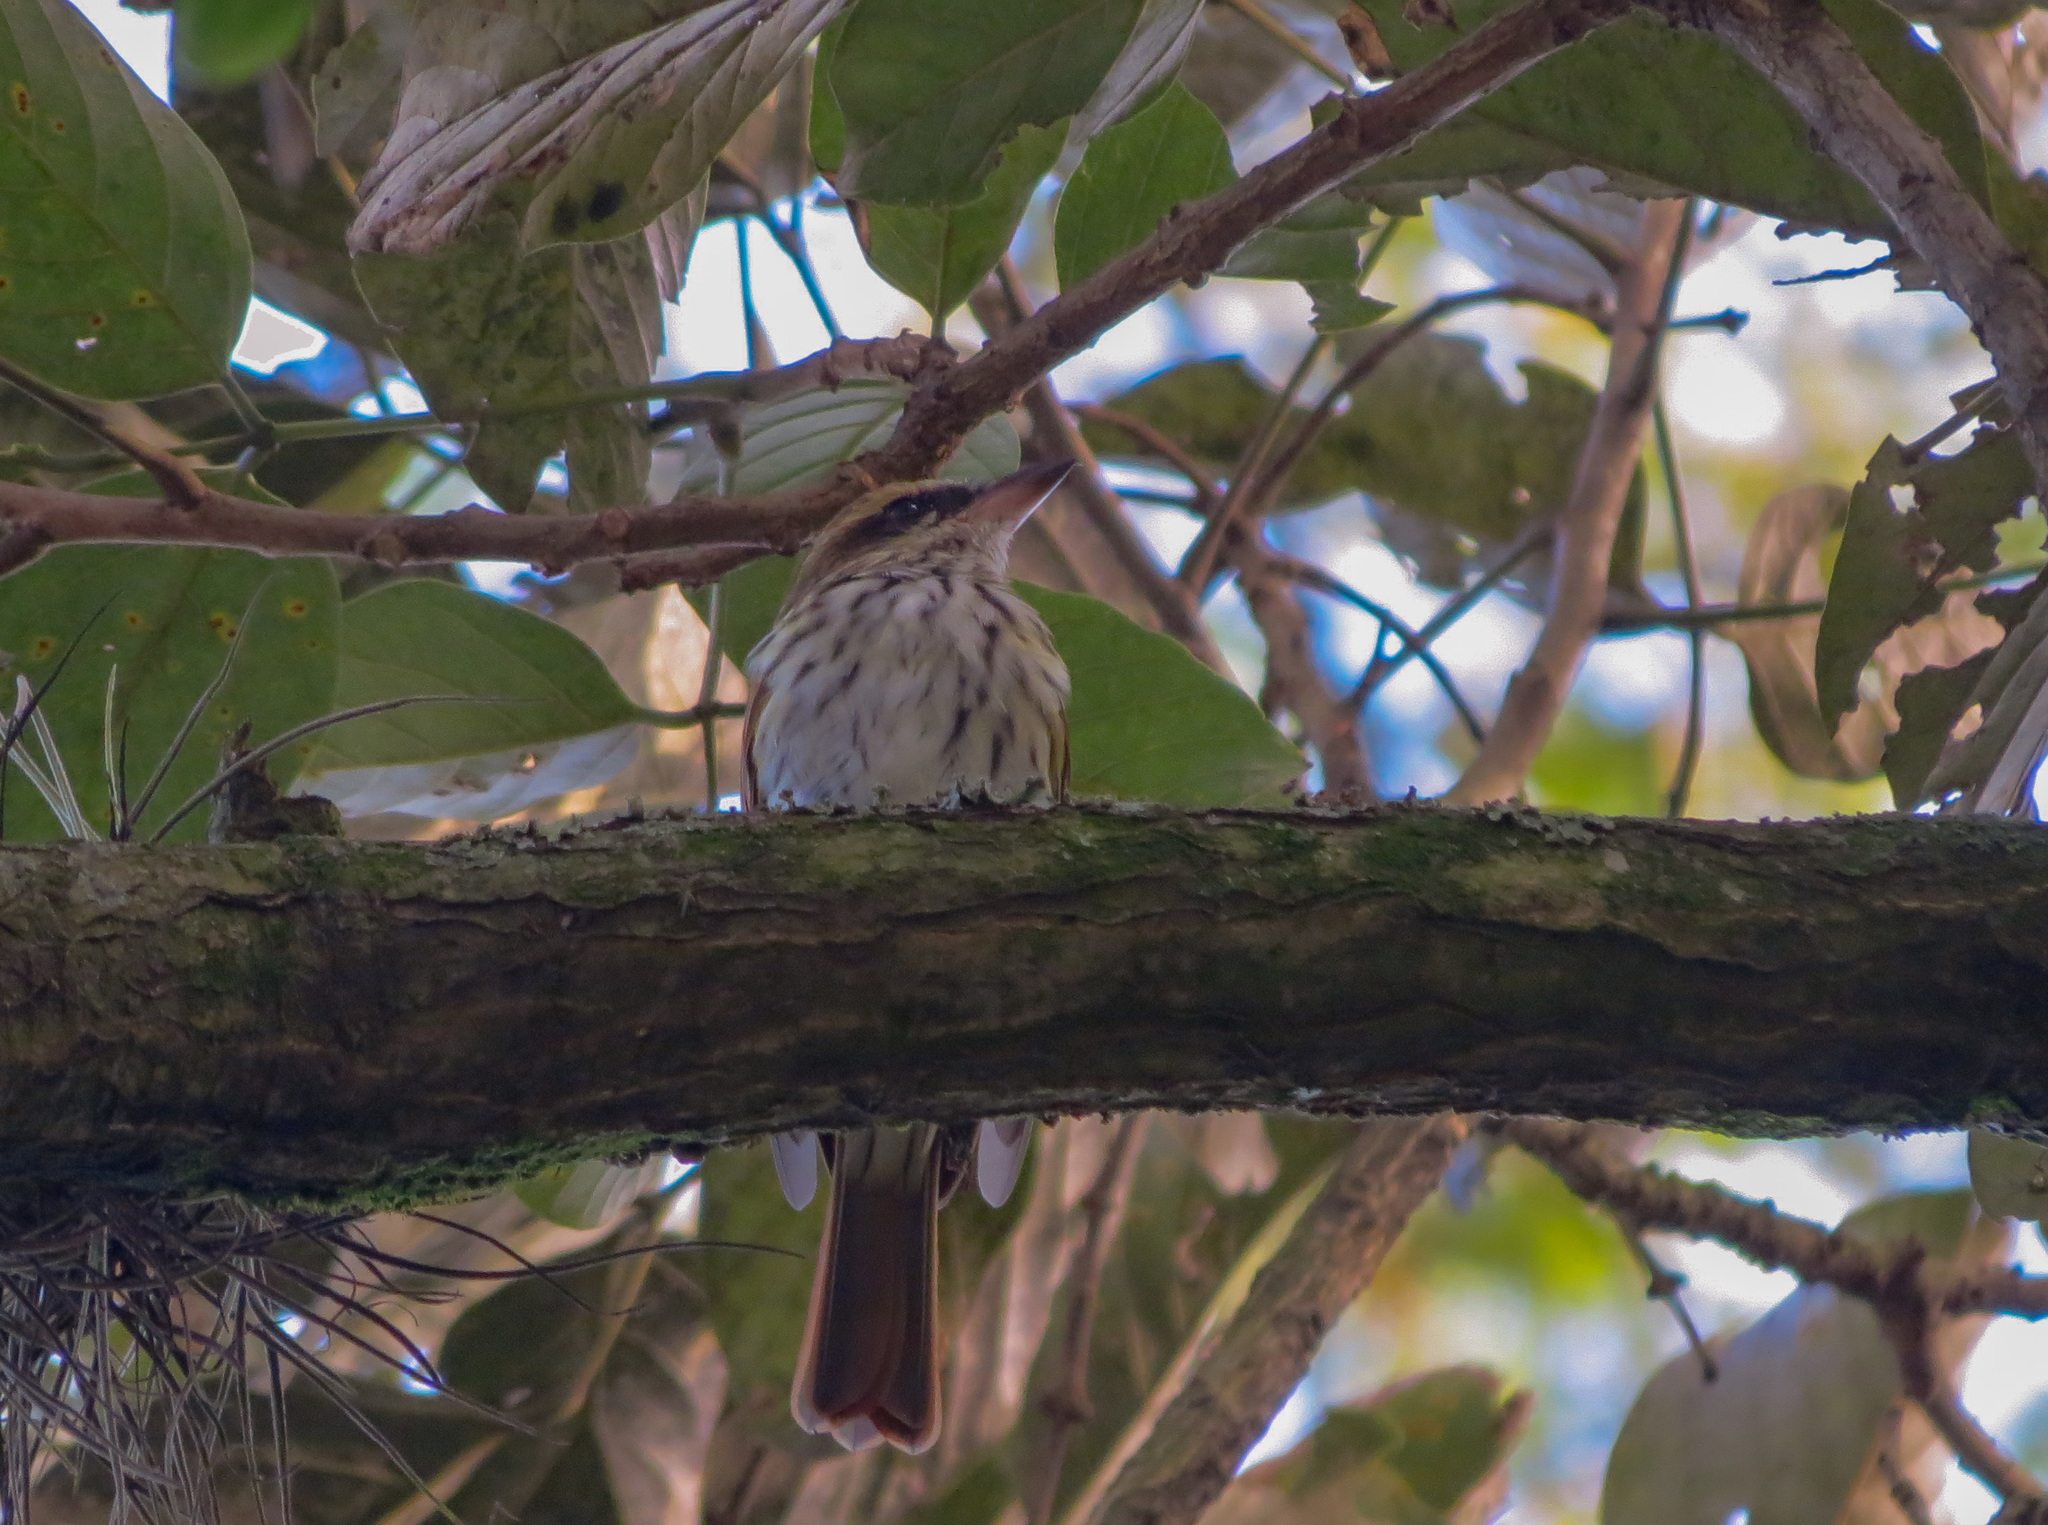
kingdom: Animalia
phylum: Chordata
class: Aves
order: Passeriformes
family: Tyrannidae
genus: Myiodynastes
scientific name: Myiodynastes maculatus
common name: Streaked flycatcher
